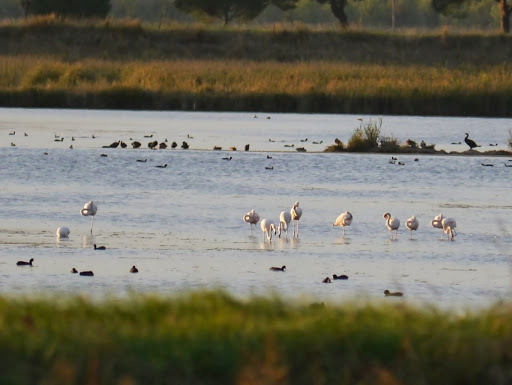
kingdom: Animalia
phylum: Chordata
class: Aves
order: Phoenicopteriformes
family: Phoenicopteridae
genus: Phoenicopterus
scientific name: Phoenicopterus roseus
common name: Greater flamingo
